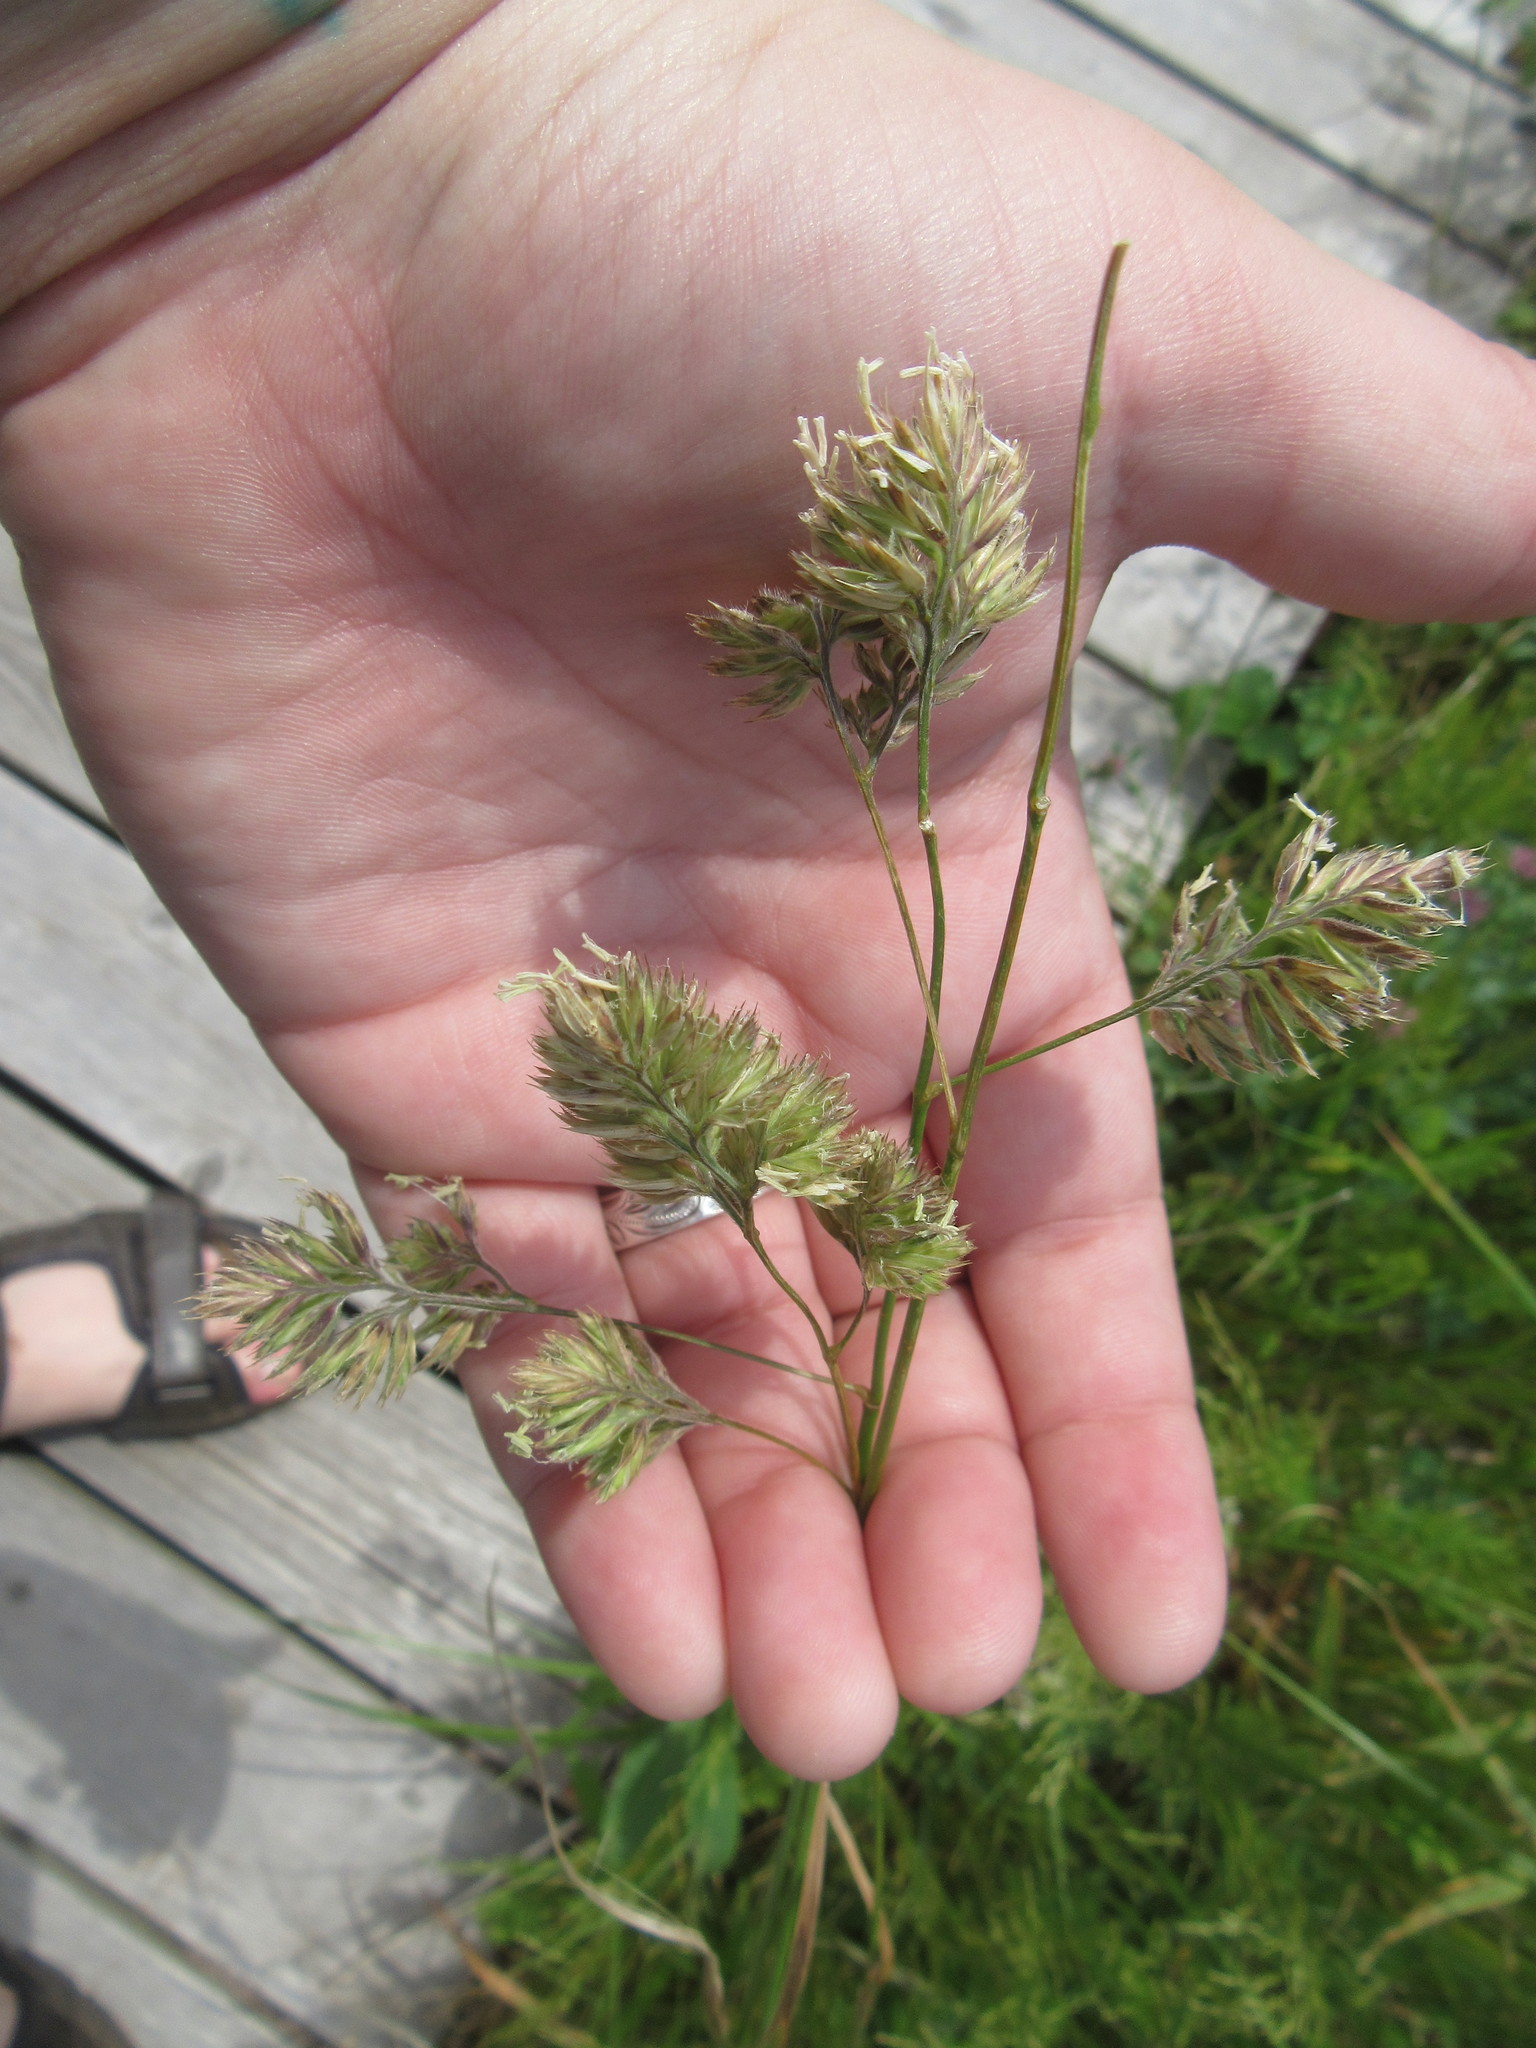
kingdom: Plantae
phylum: Tracheophyta
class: Liliopsida
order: Poales
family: Poaceae
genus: Dactylis
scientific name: Dactylis glomerata
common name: Orchardgrass
